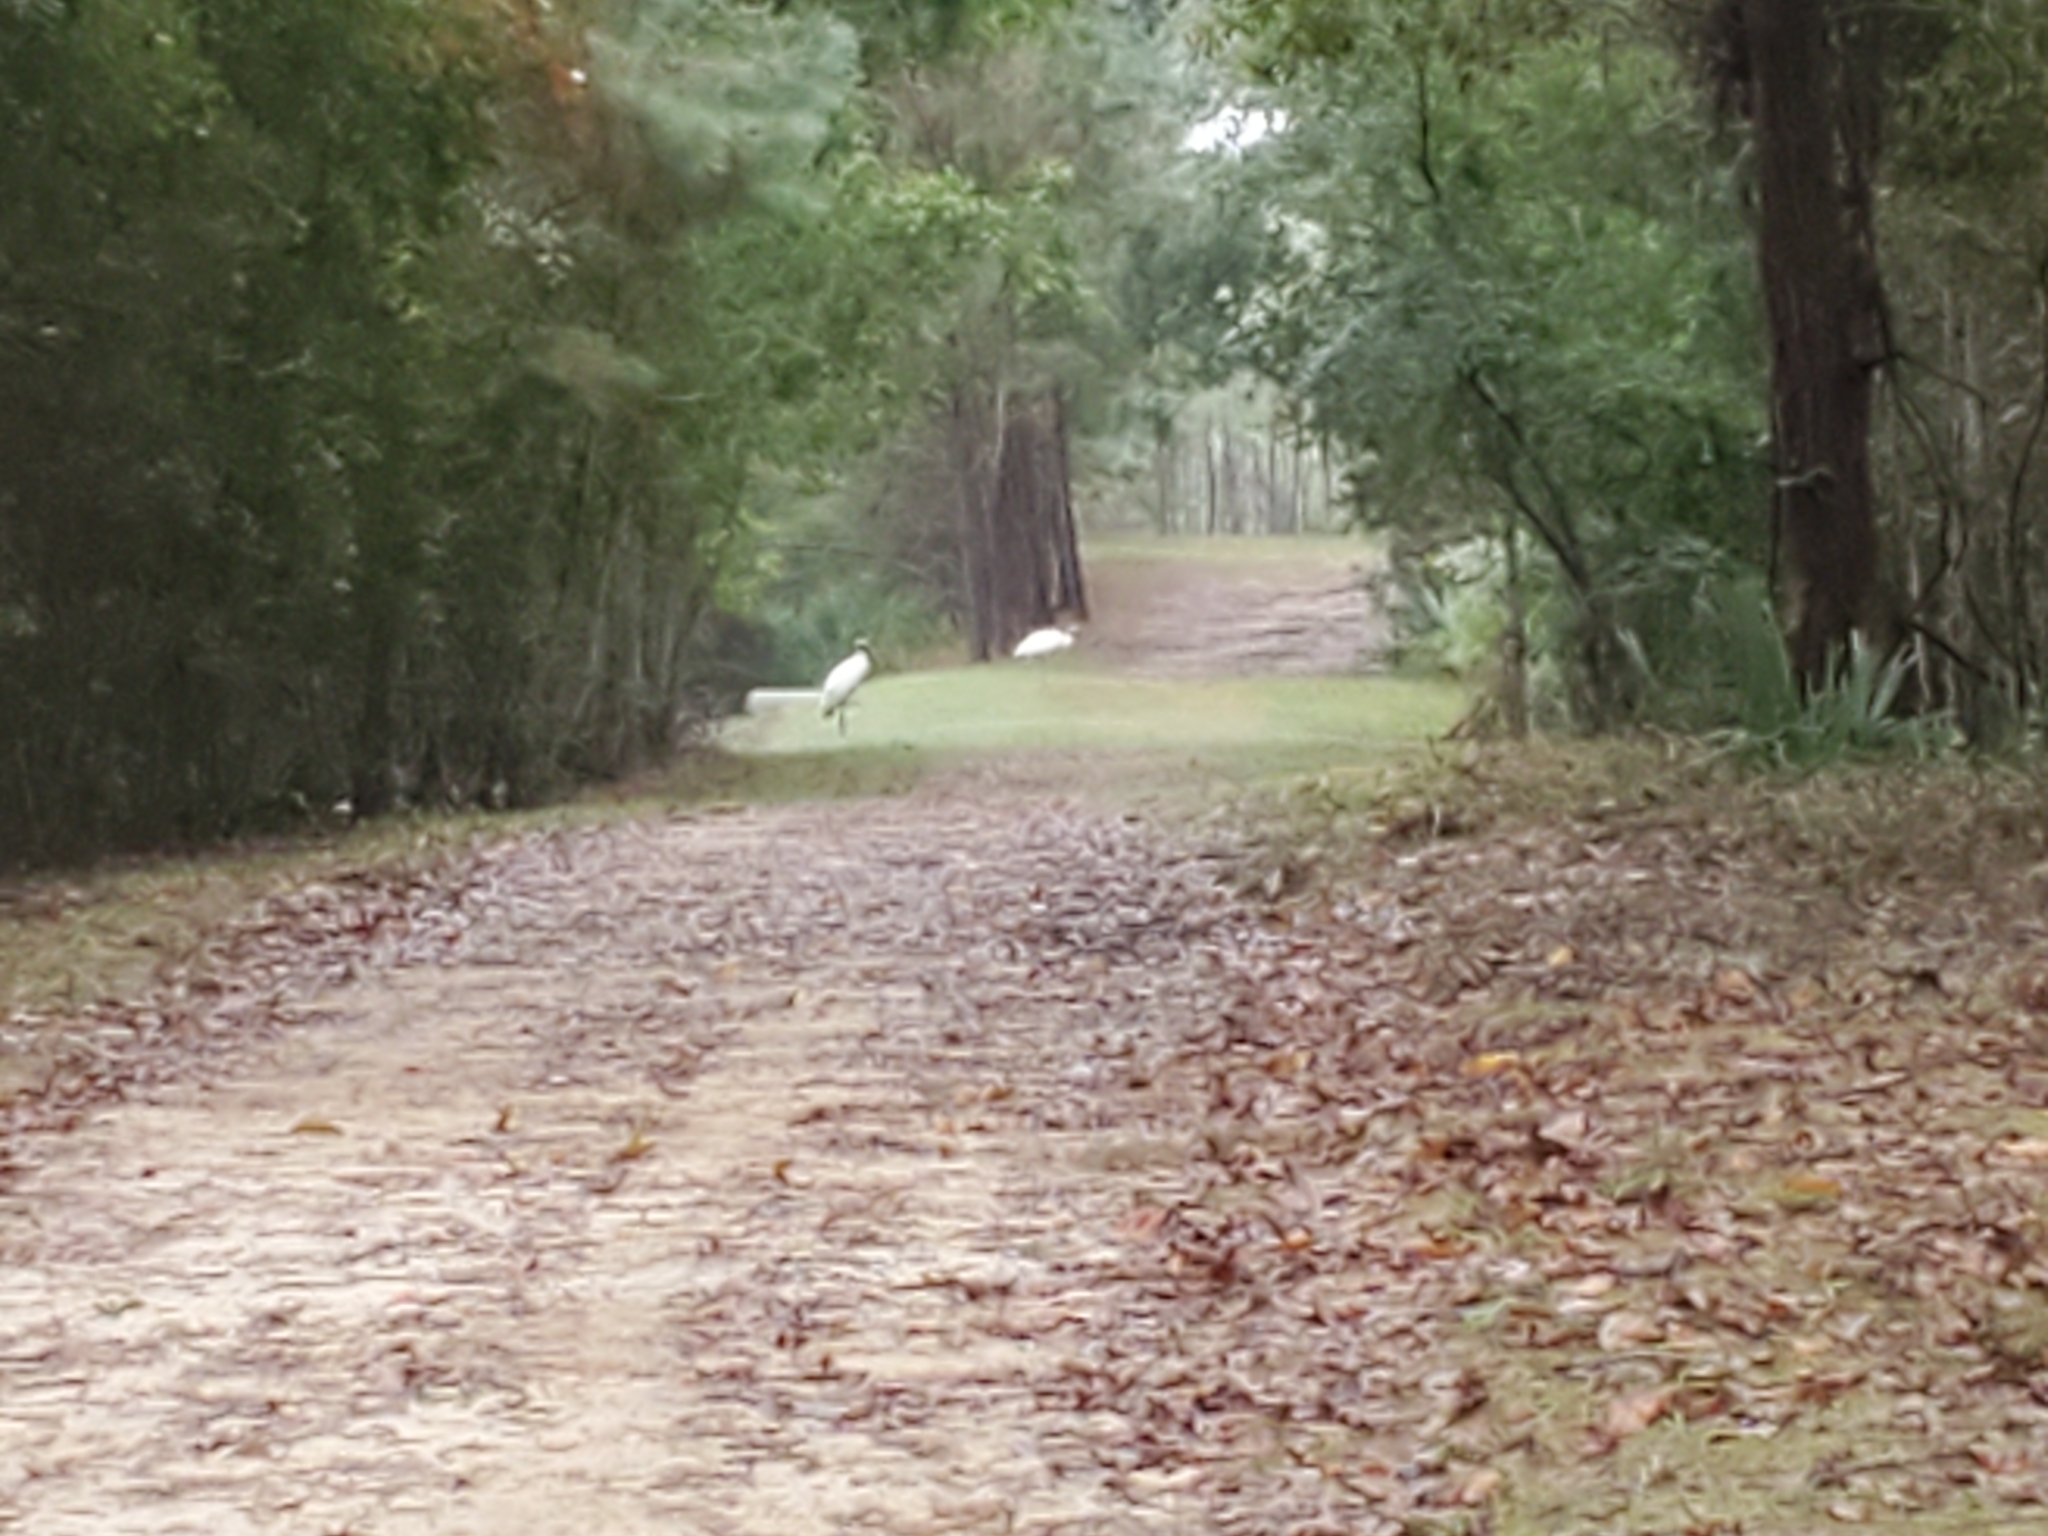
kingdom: Animalia
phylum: Chordata
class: Aves
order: Ciconiiformes
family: Ciconiidae
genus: Mycteria
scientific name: Mycteria americana
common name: Wood stork
